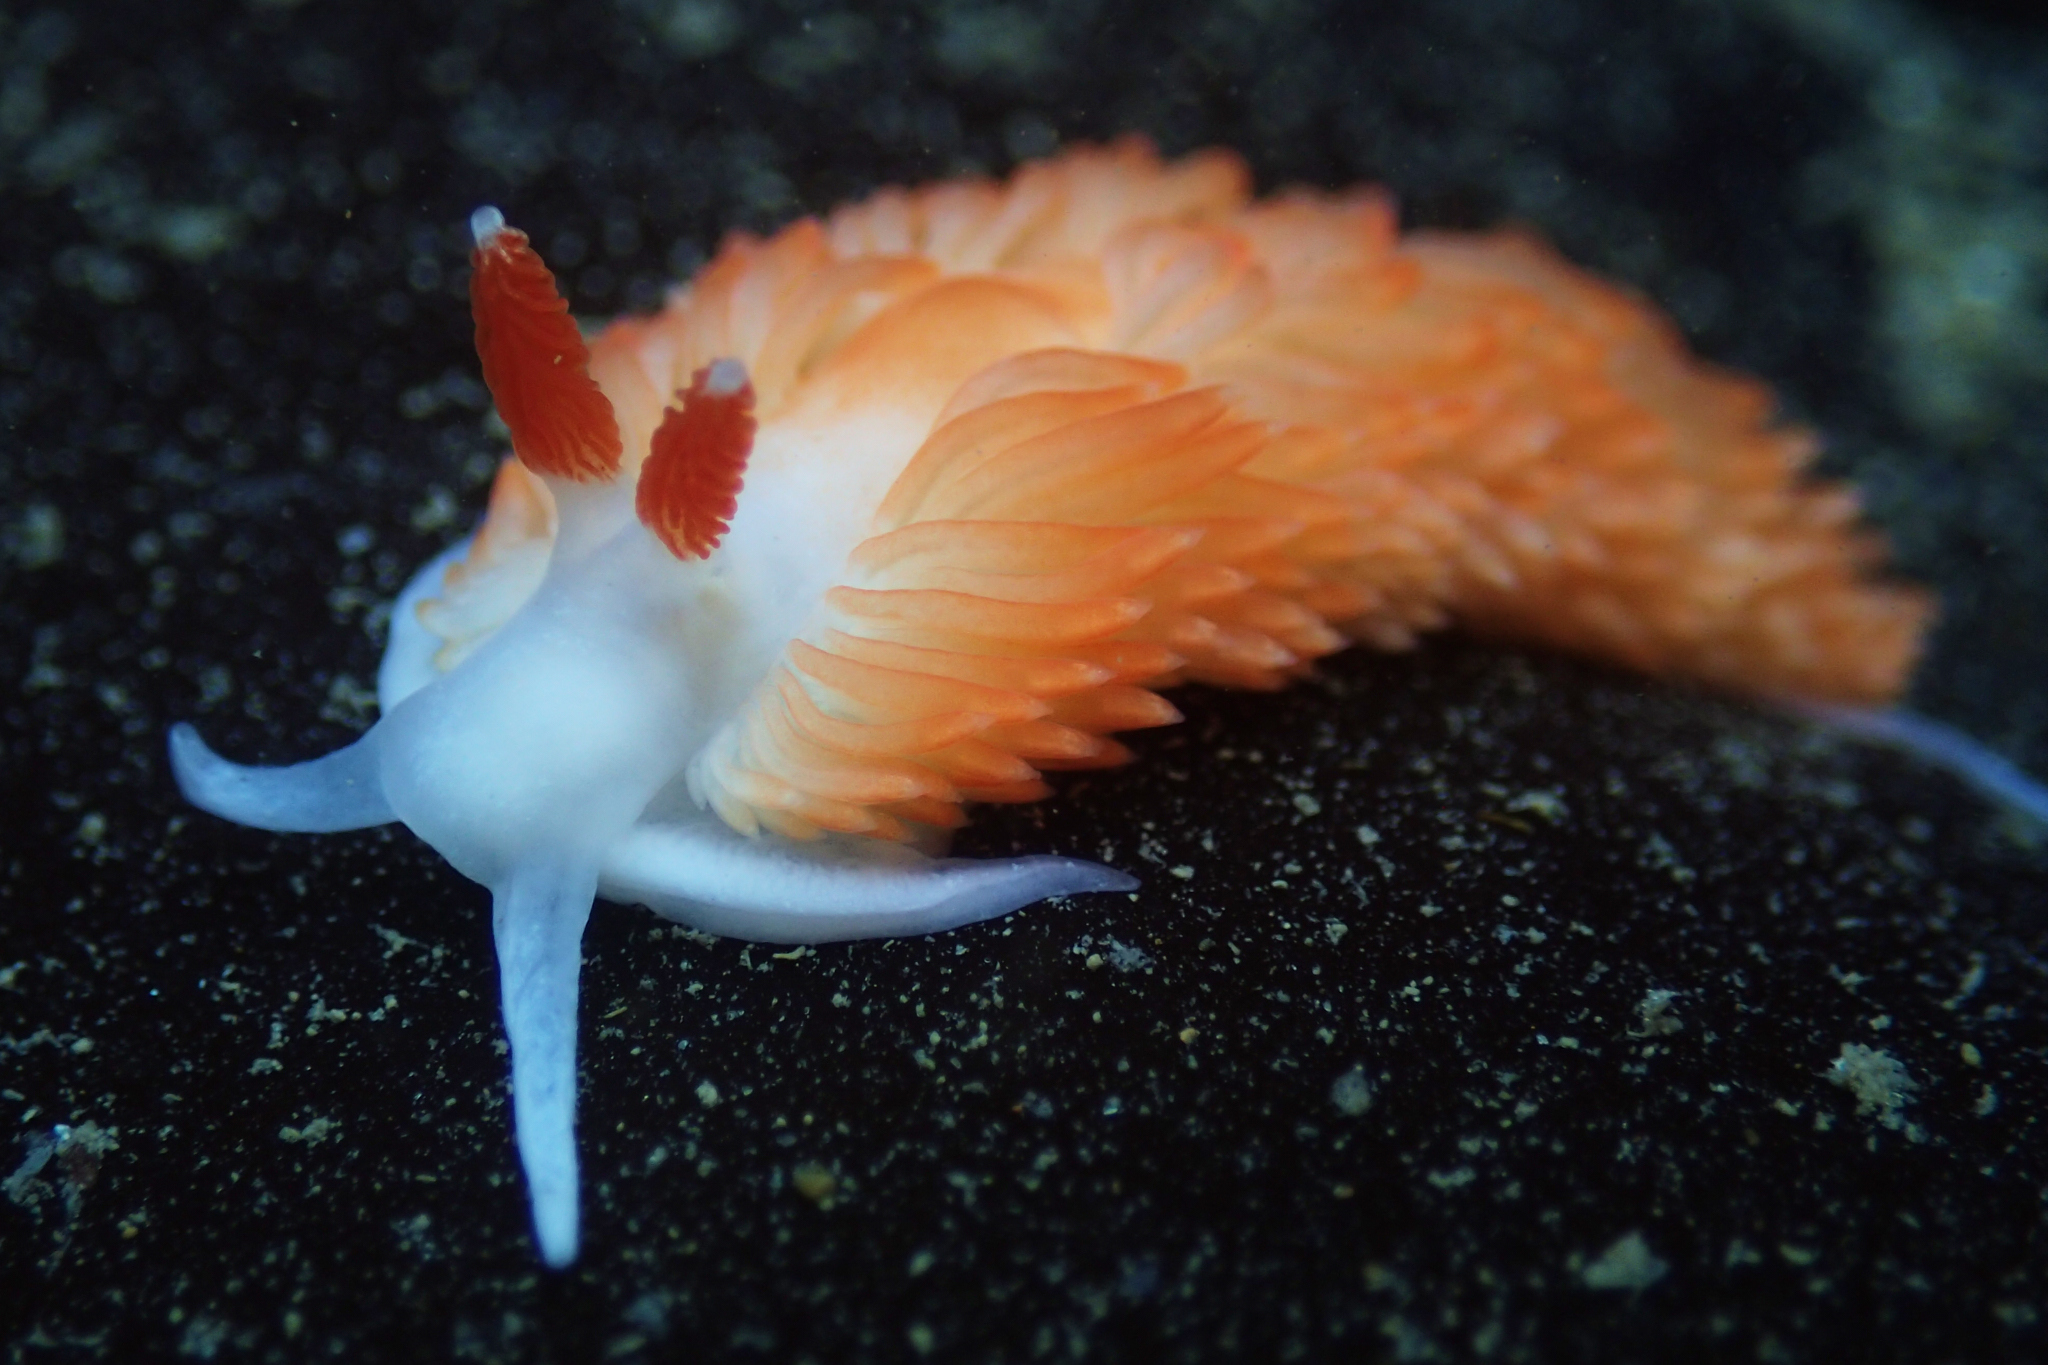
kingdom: Animalia
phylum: Mollusca
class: Gastropoda
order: Nudibranchia
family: Aeolidiidae
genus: Anteaeolidiella
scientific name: Anteaeolidiella oliviae
